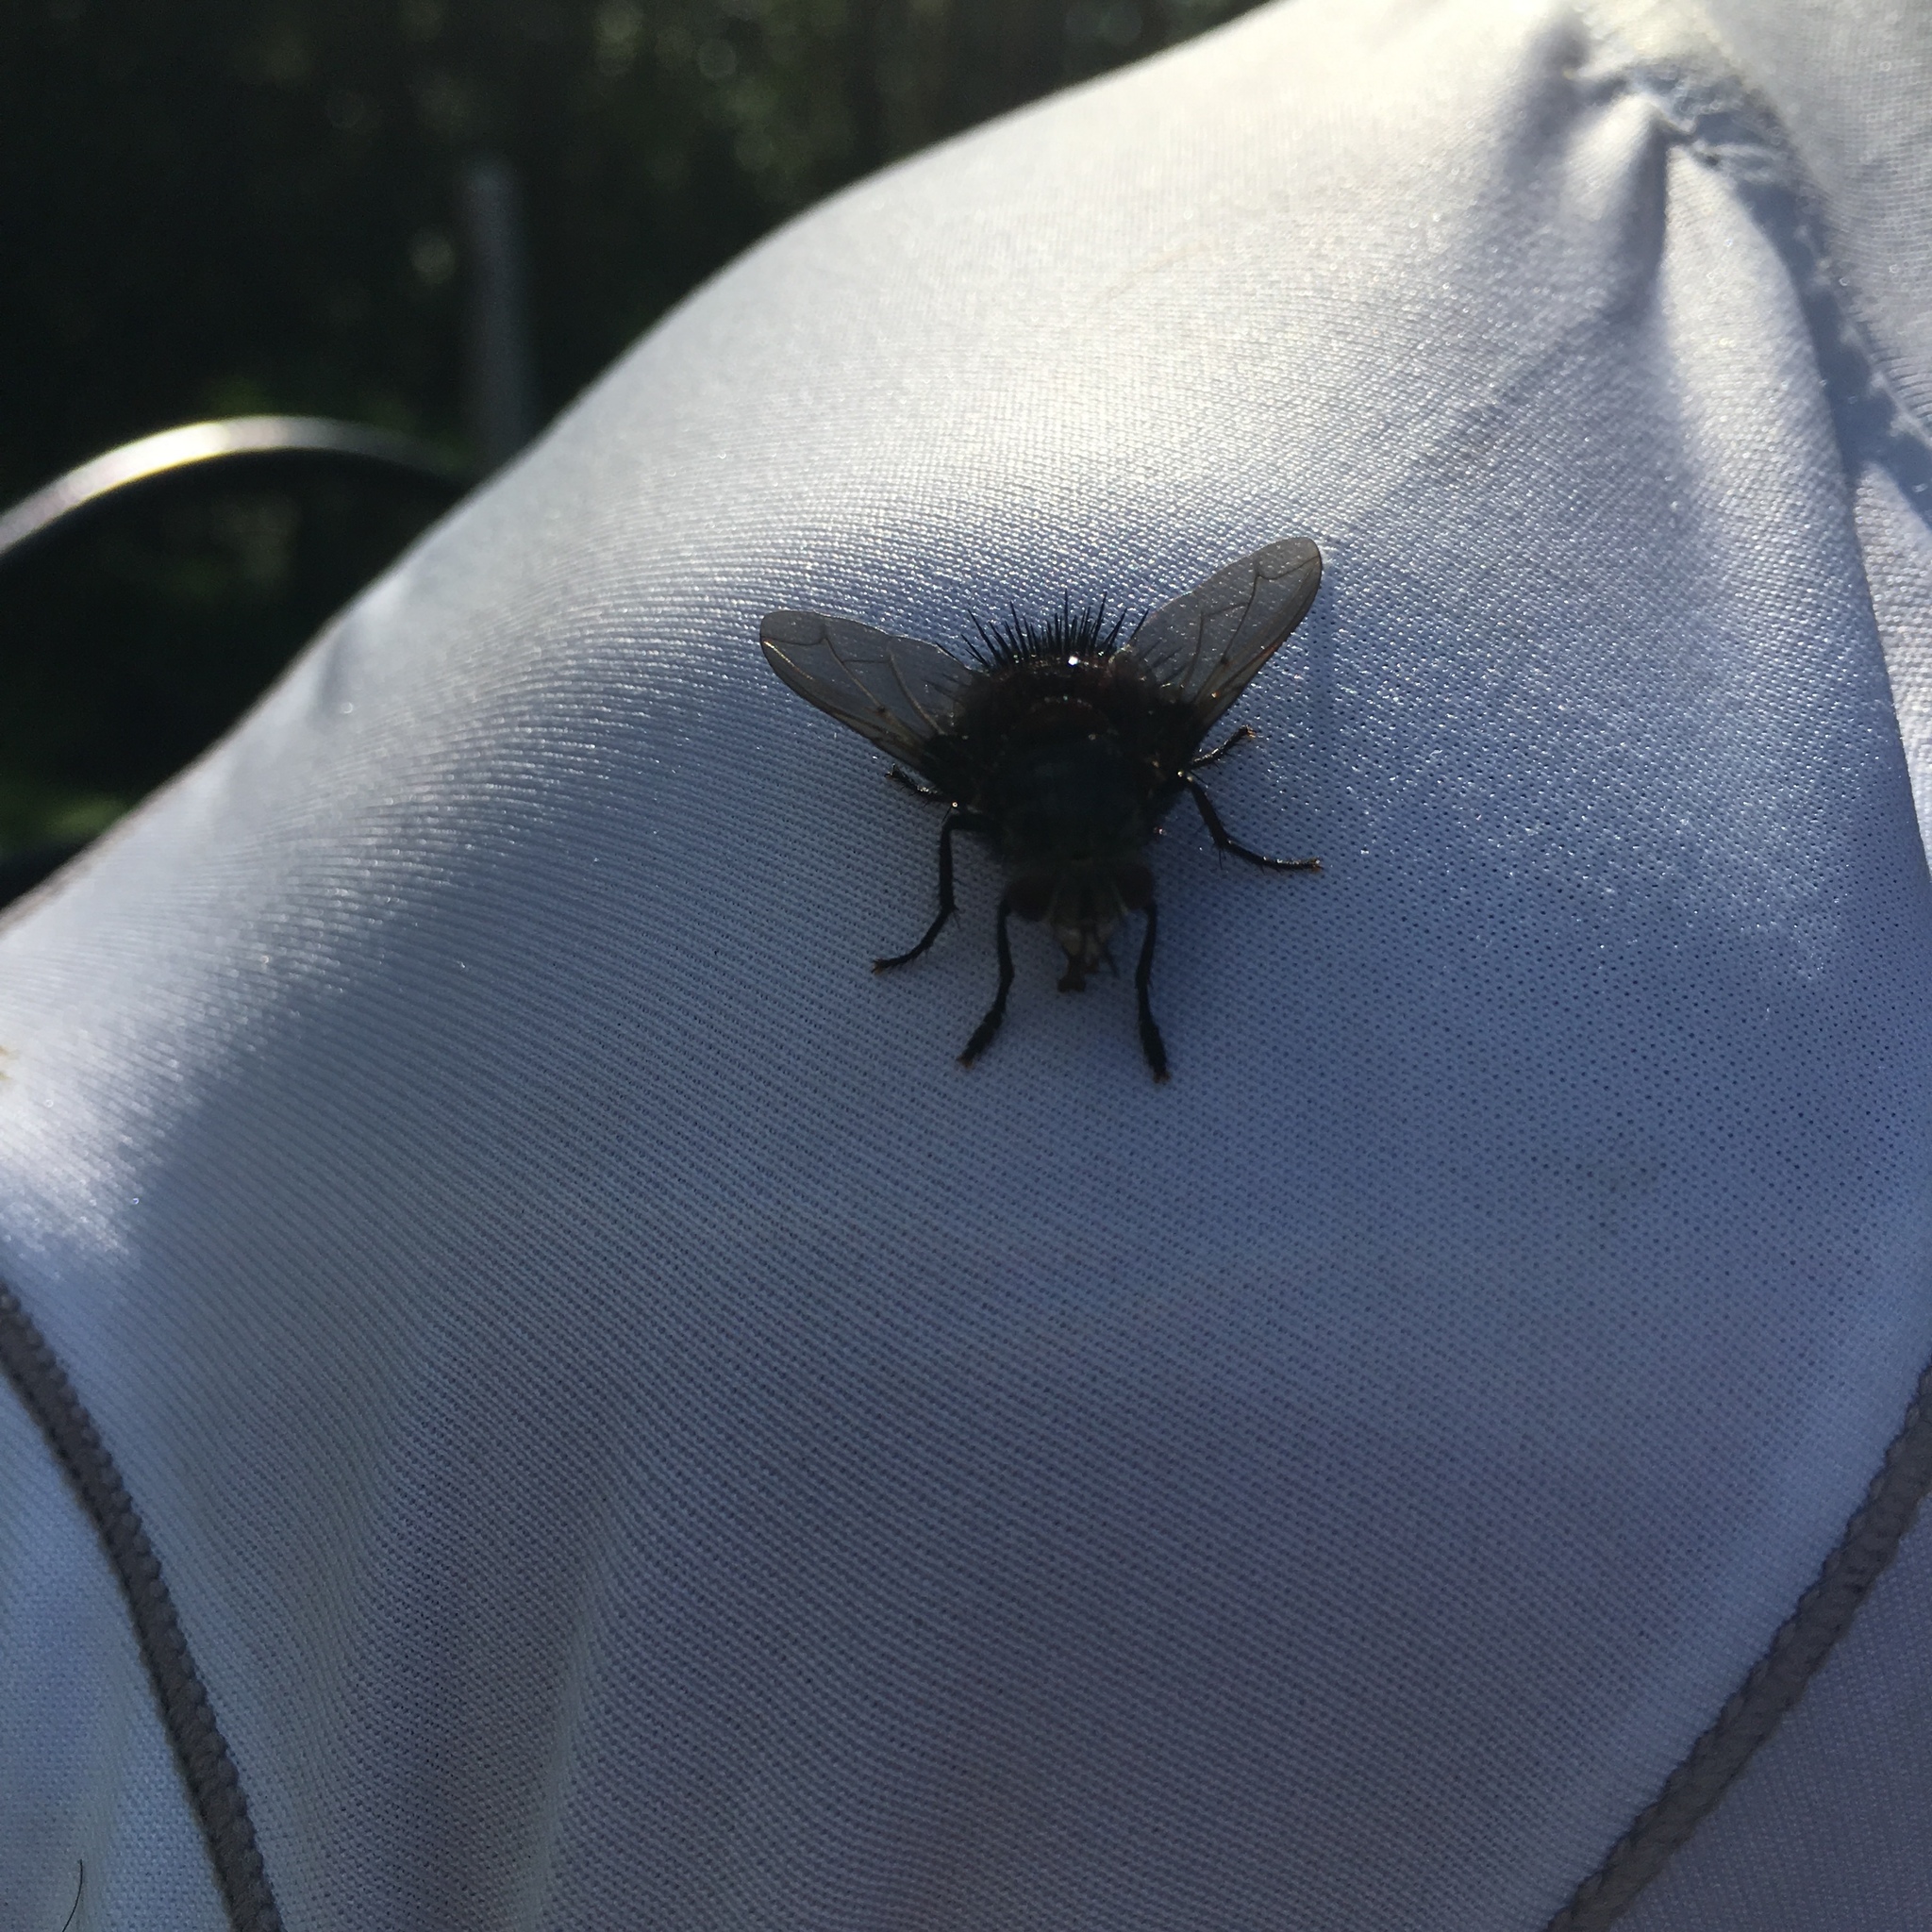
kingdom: Animalia
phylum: Arthropoda
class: Insecta
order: Diptera
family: Tachinidae
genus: Juriniopsis
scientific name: Juriniopsis adusta
